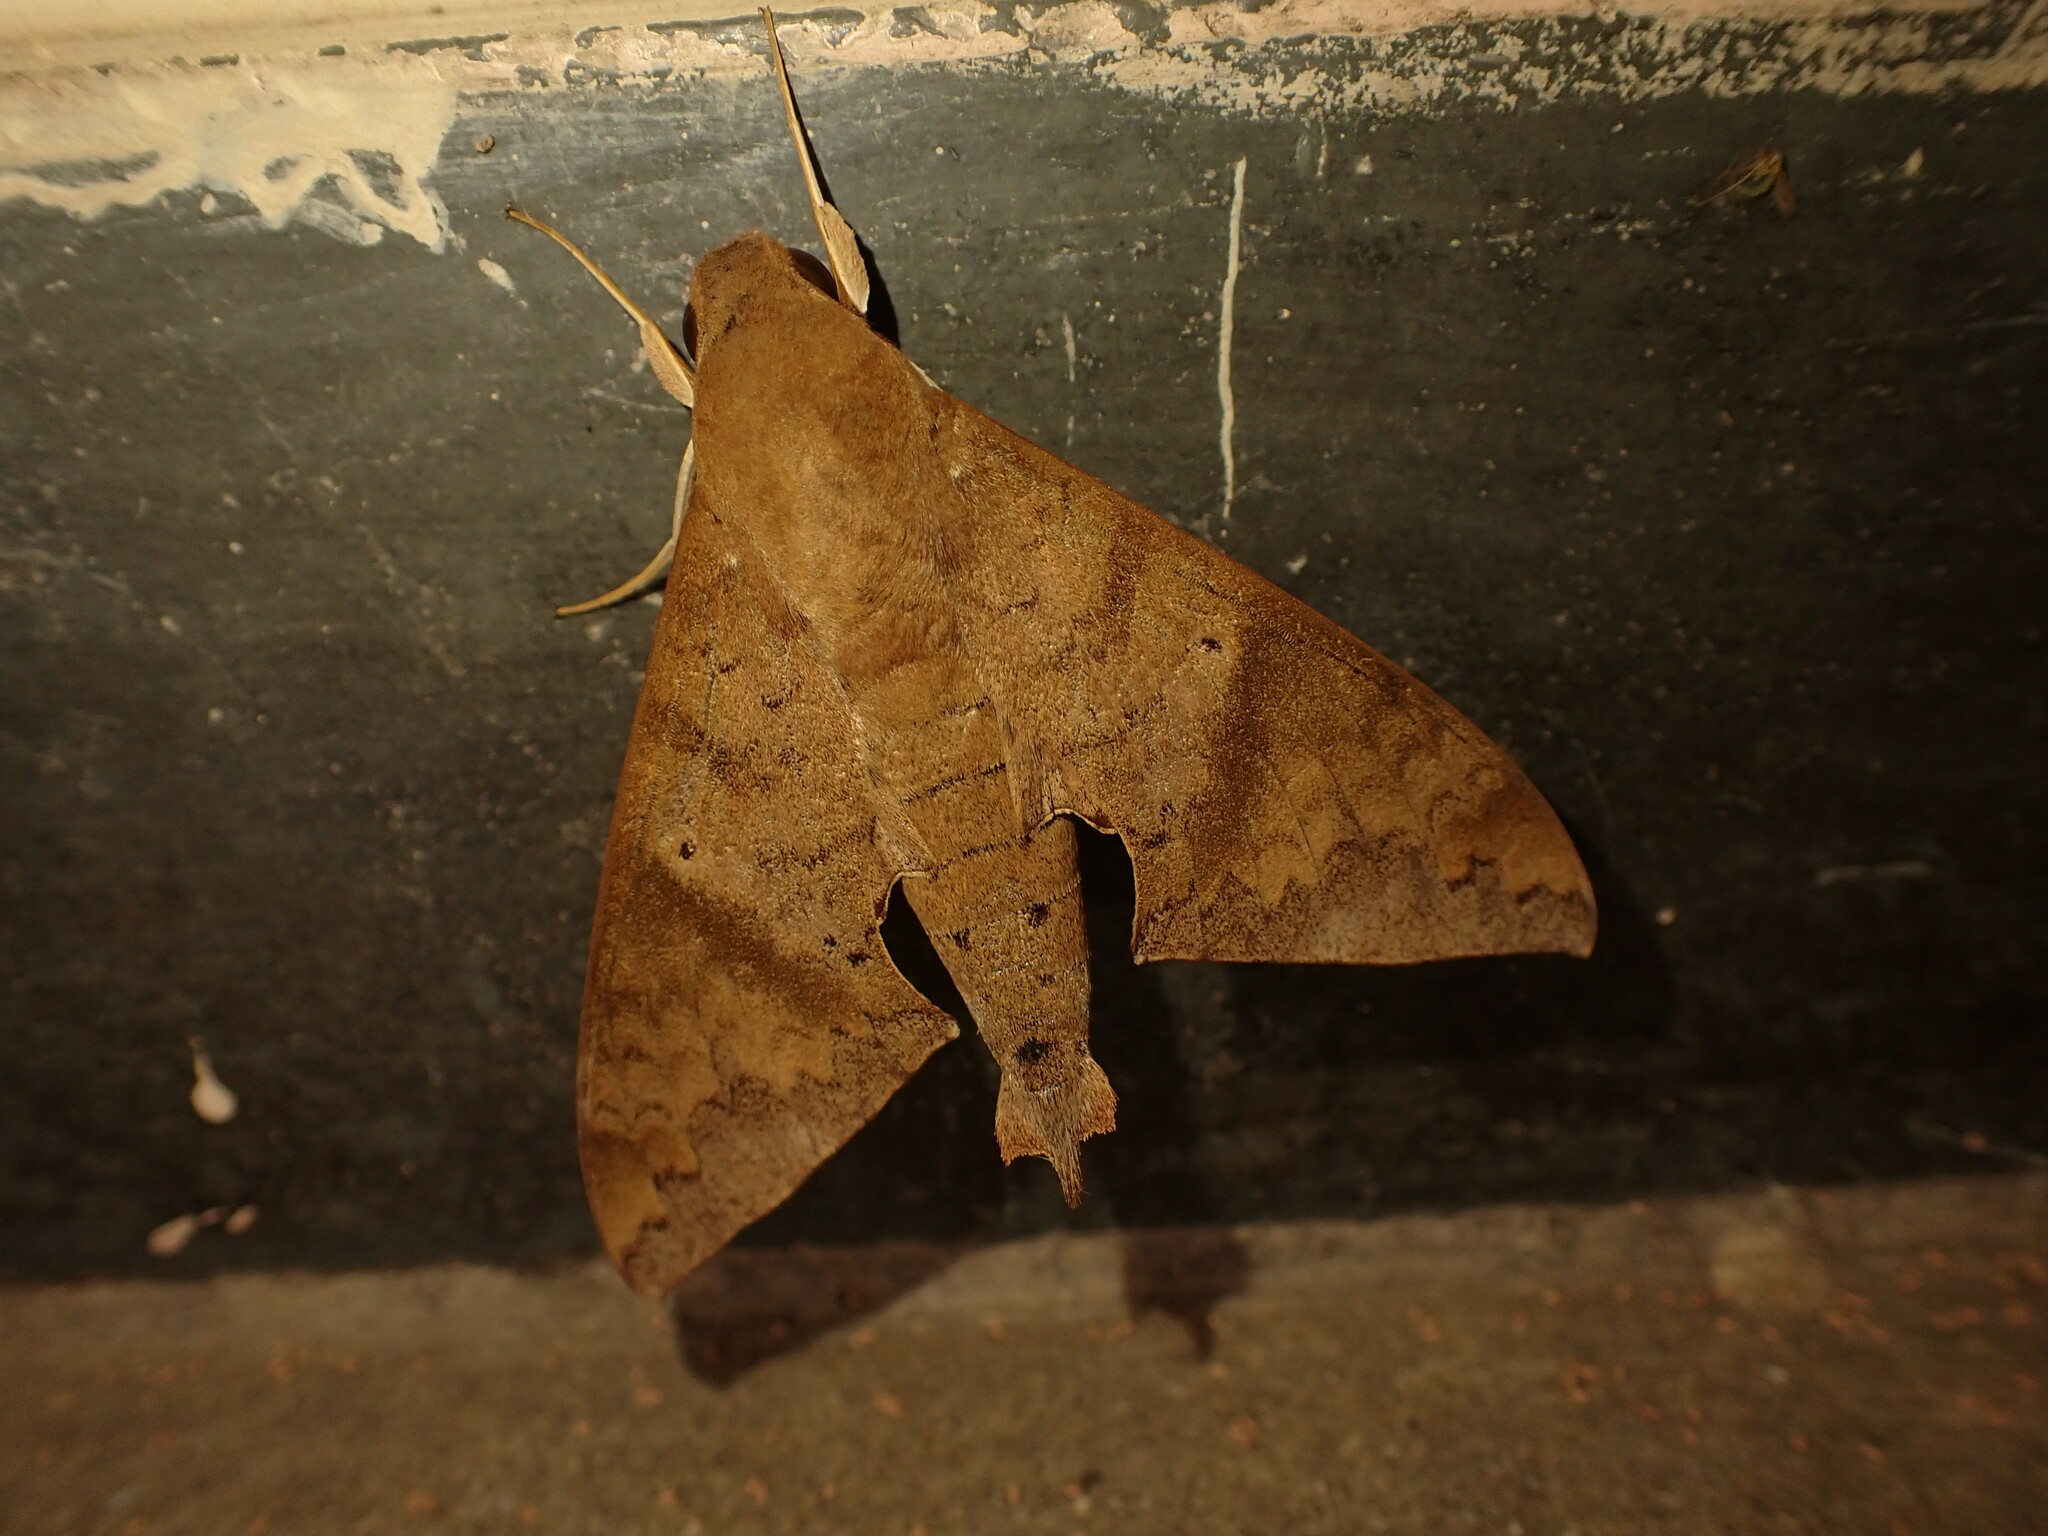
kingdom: Animalia
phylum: Arthropoda
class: Insecta
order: Lepidoptera
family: Sphingidae
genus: Pachylioides
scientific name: Pachylioides resumens
